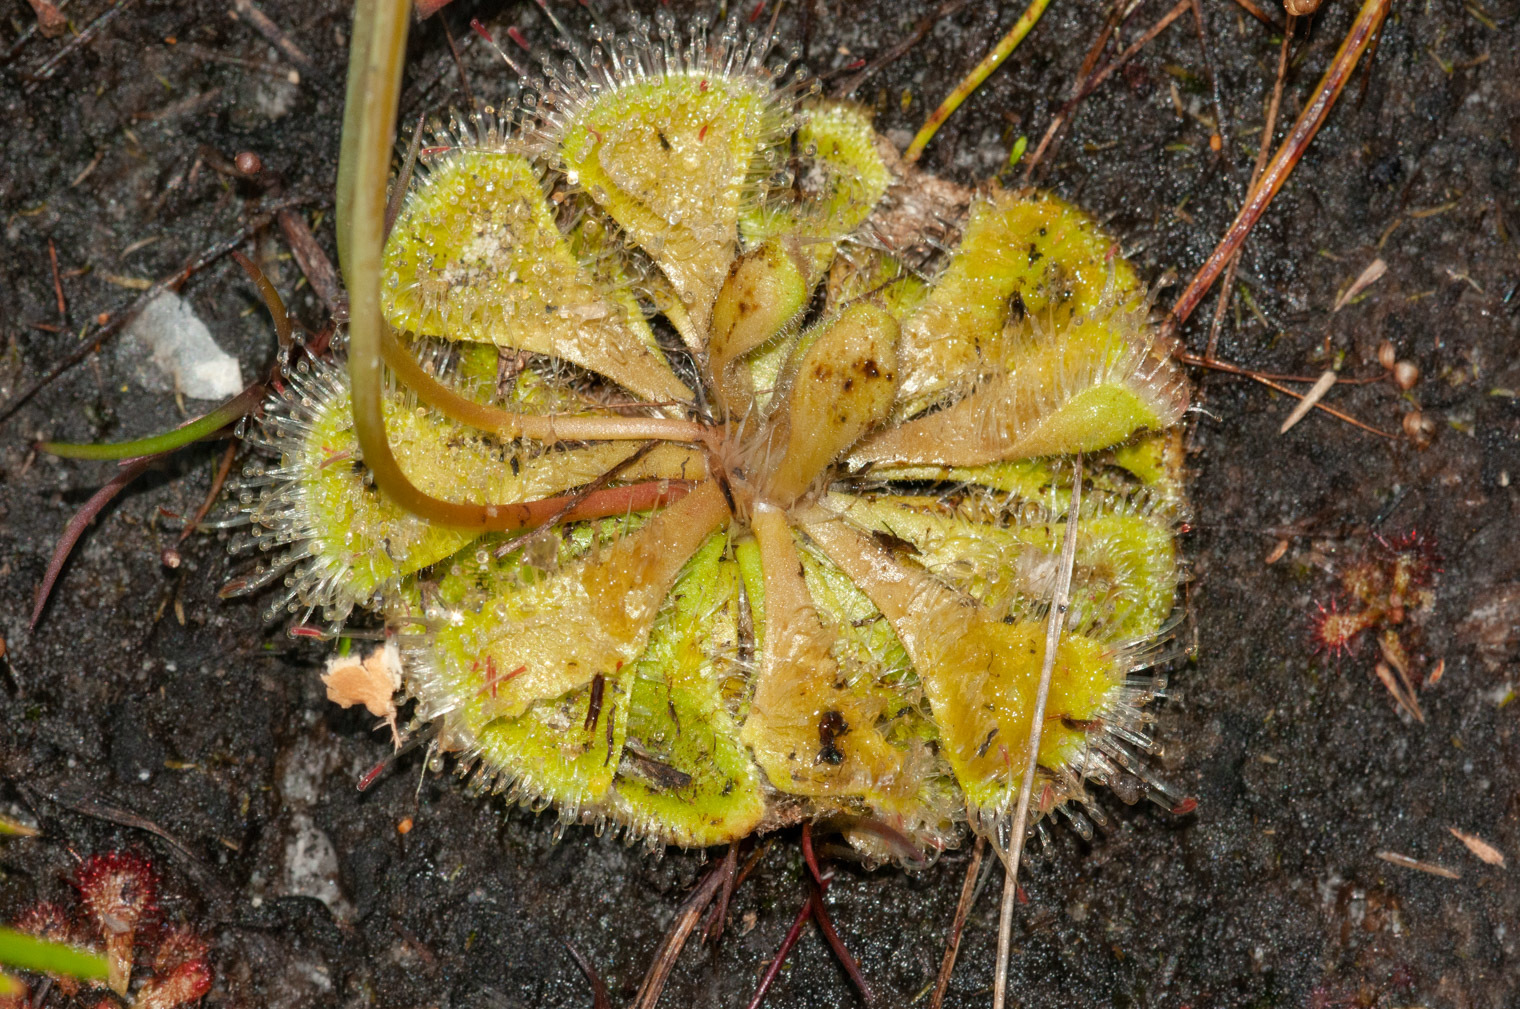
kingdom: Plantae
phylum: Tracheophyta
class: Magnoliopsida
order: Caryophyllales
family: Droseraceae
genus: Drosera
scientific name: Drosera spatulata
